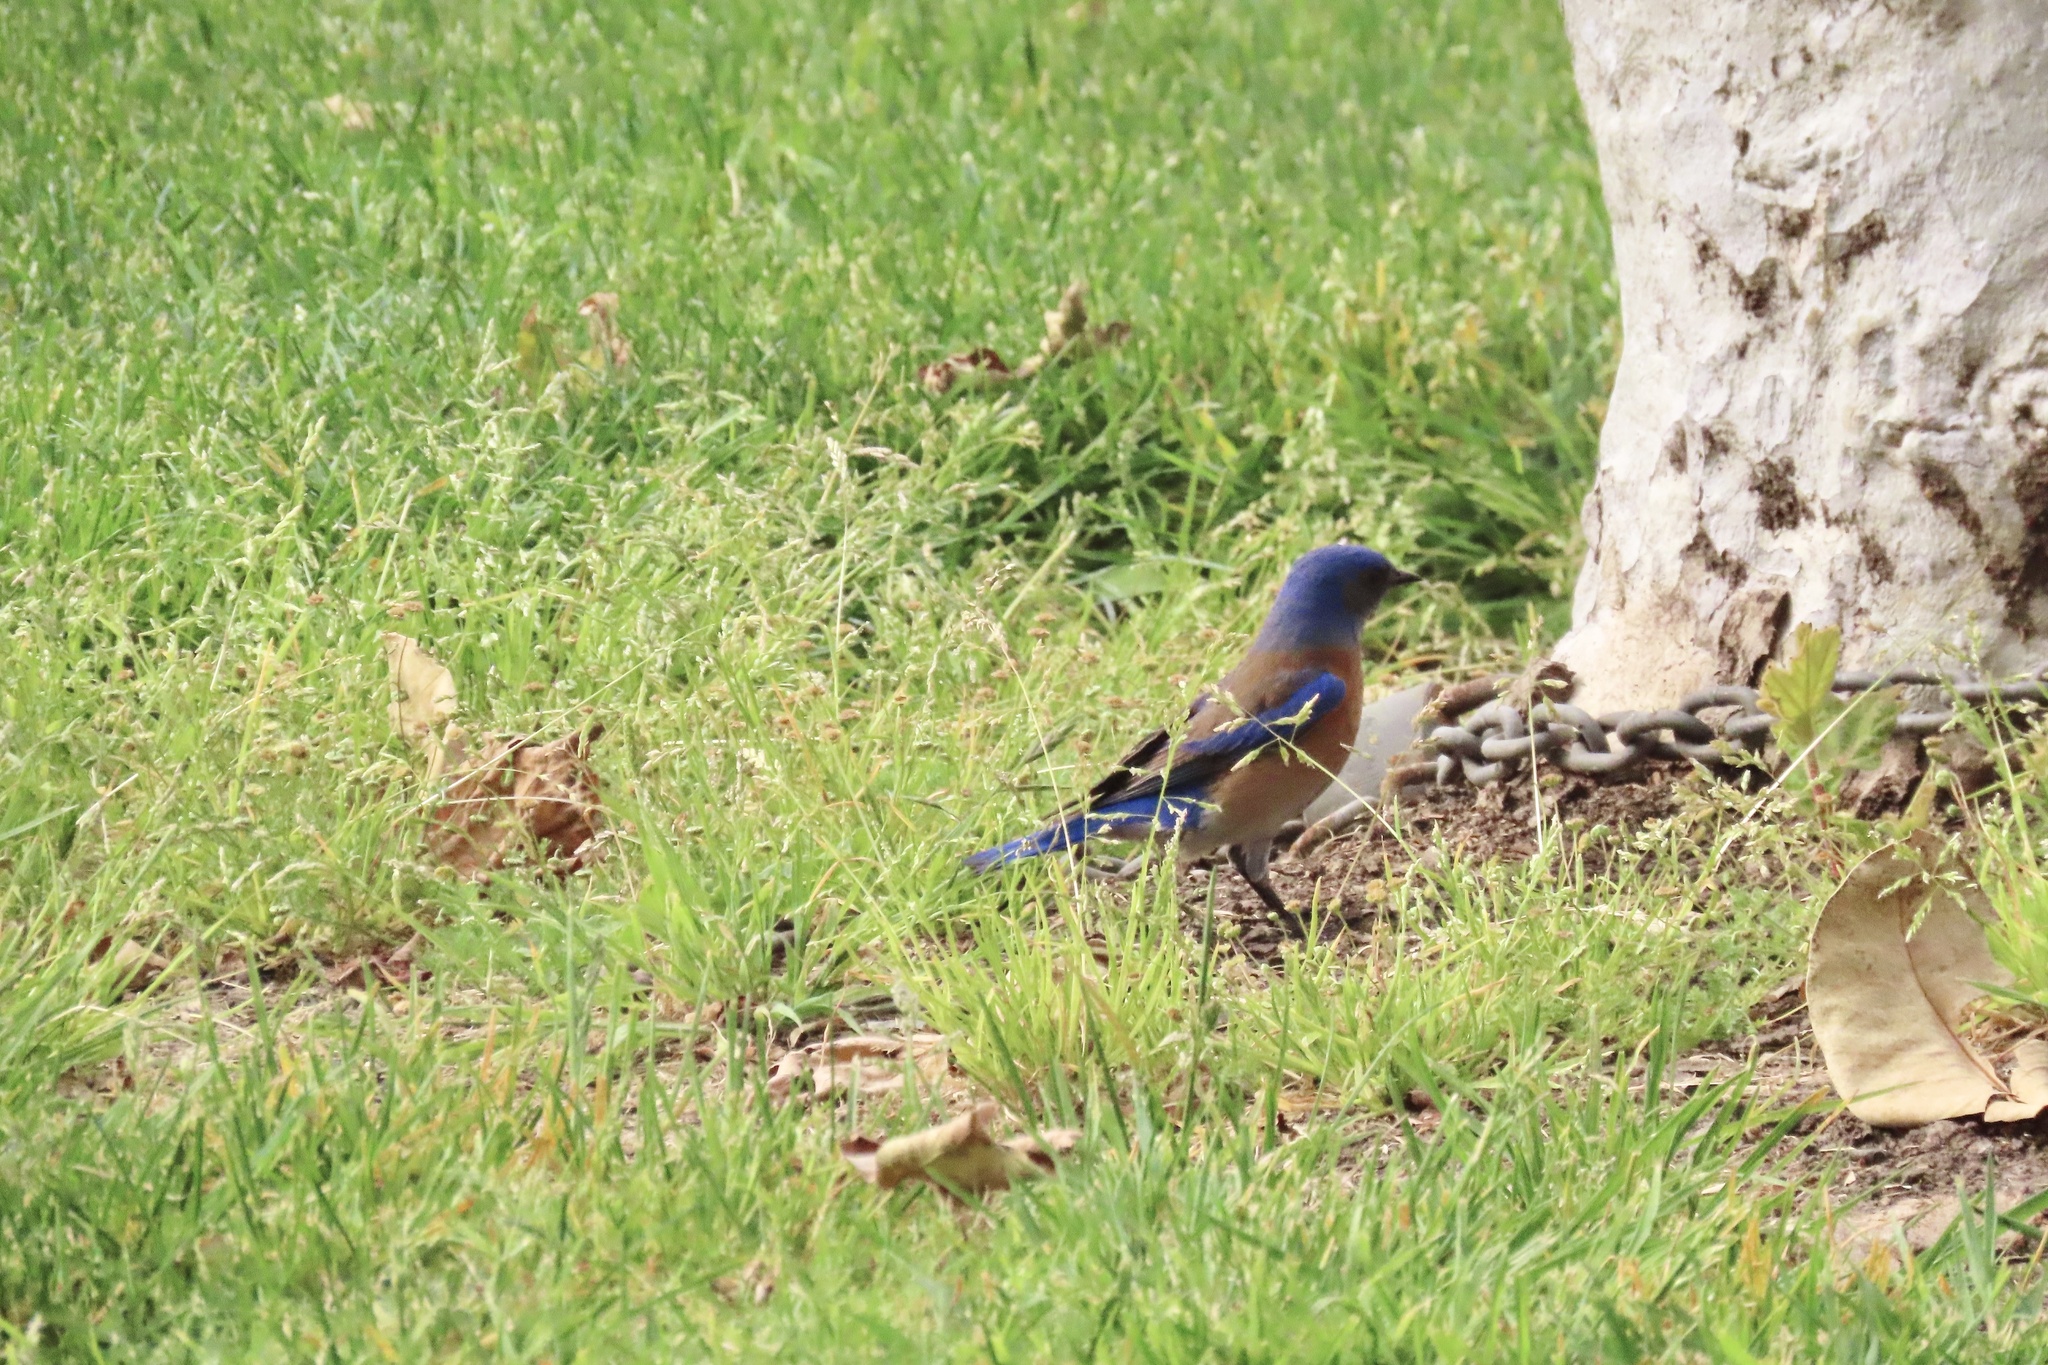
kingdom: Animalia
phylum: Chordata
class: Aves
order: Passeriformes
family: Turdidae
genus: Sialia
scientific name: Sialia mexicana
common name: Western bluebird
